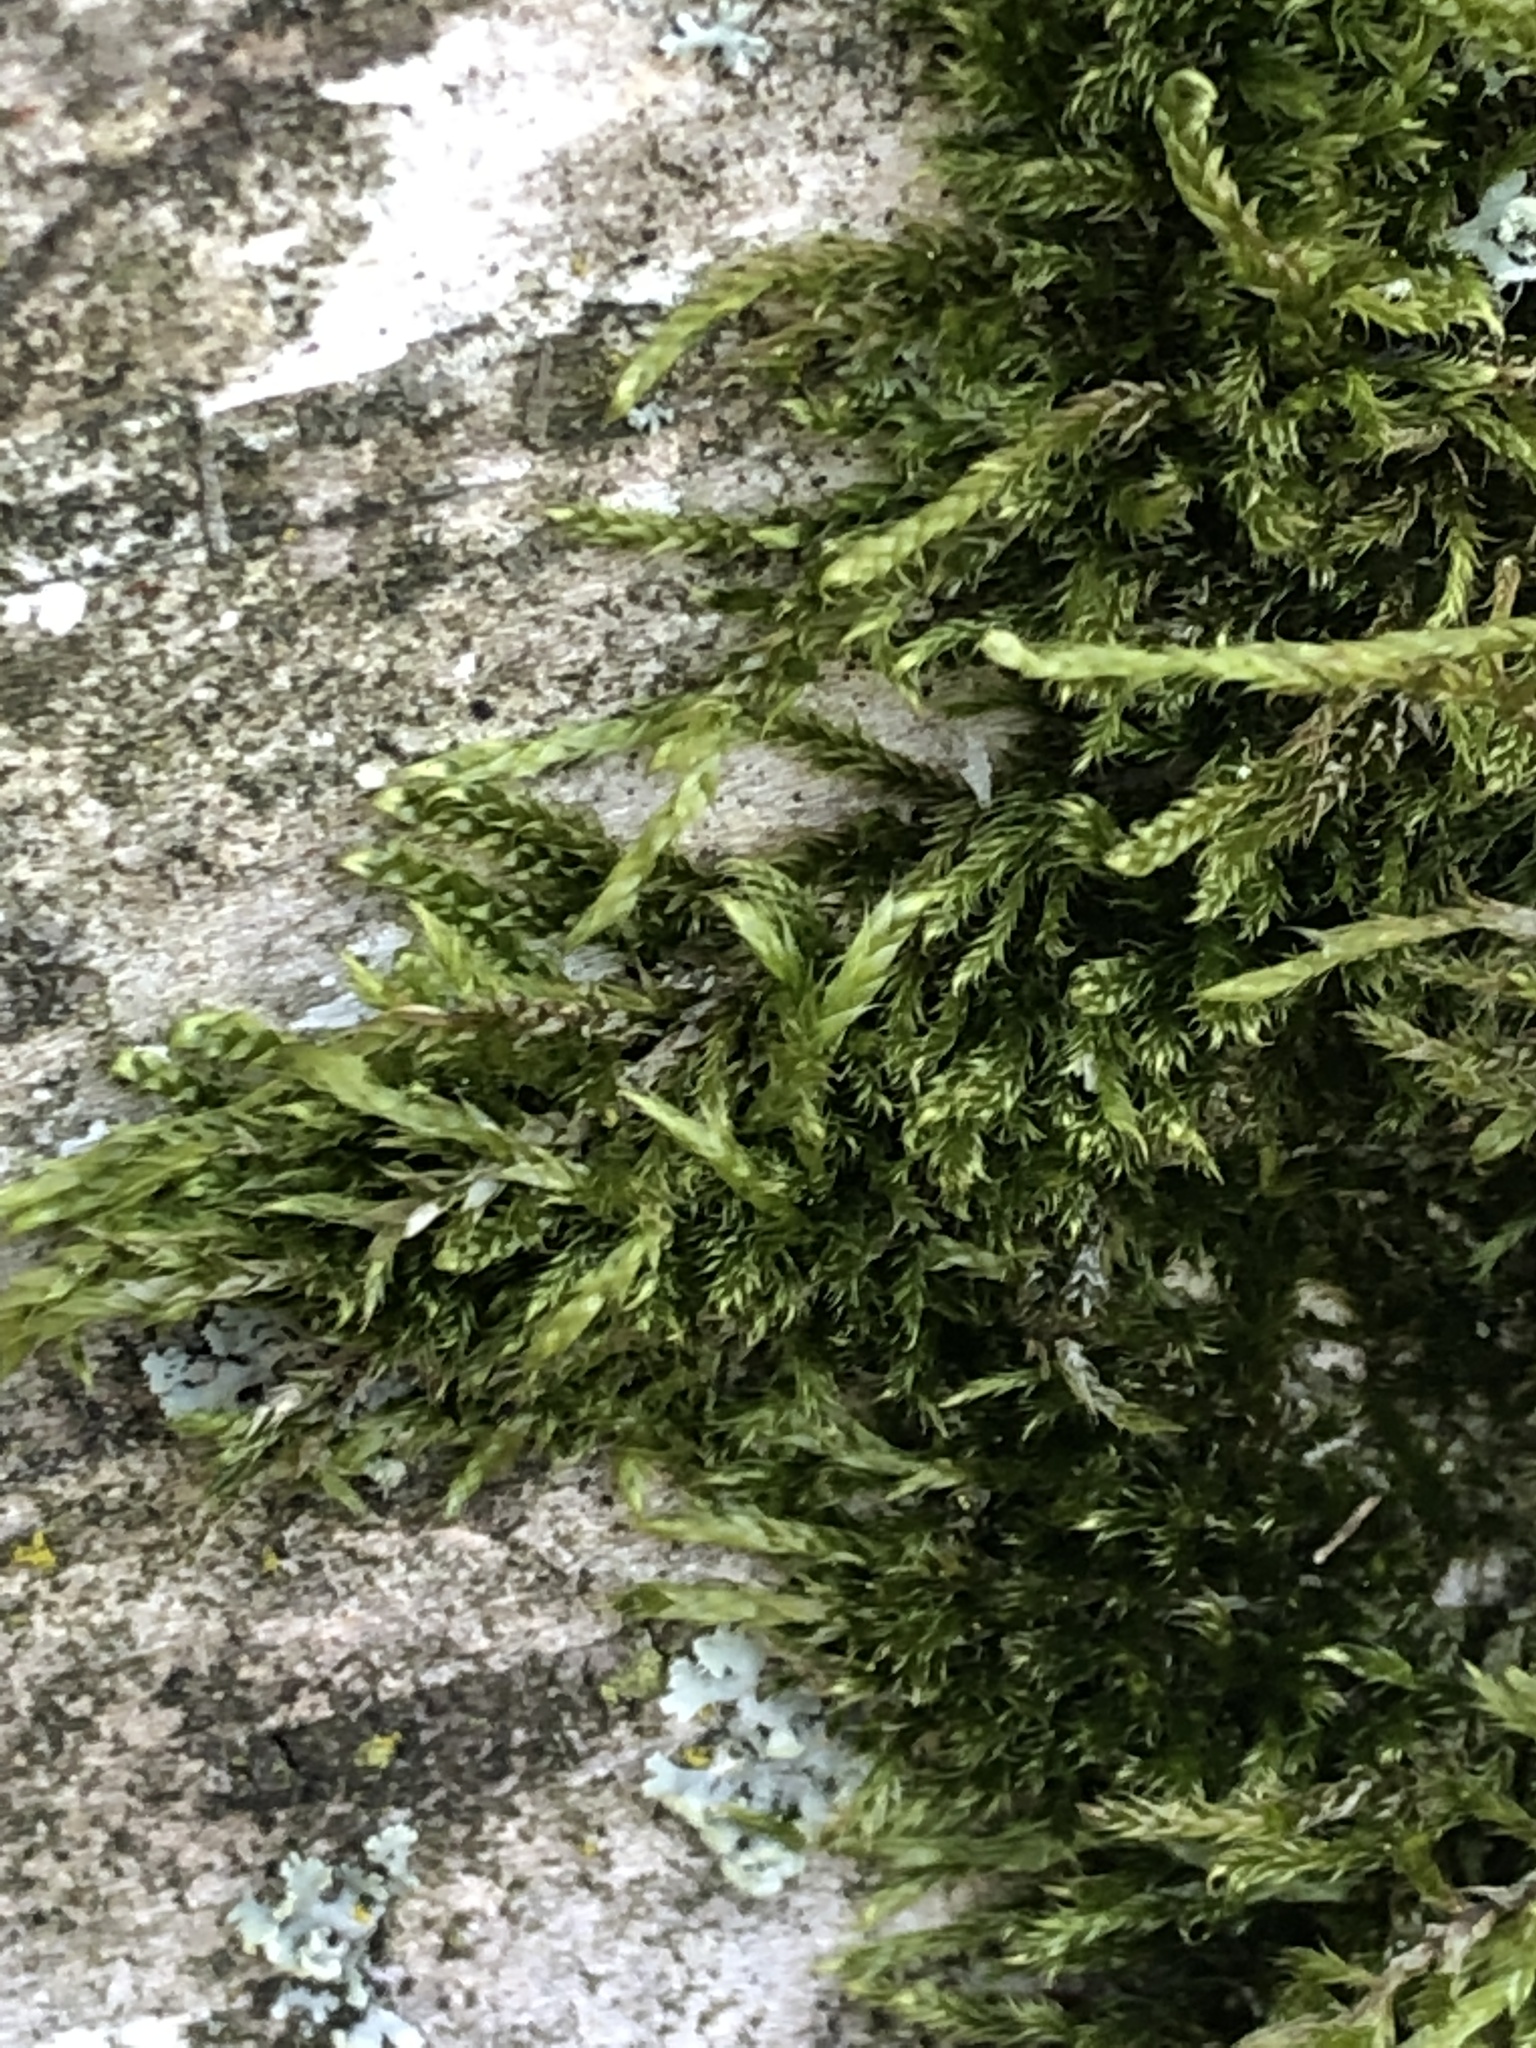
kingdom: Plantae
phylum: Bryophyta
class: Bryopsida
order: Hypnales
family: Hypnaceae
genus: Hypnum
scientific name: Hypnum cupressiforme
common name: Cypress-leaved plait-moss
